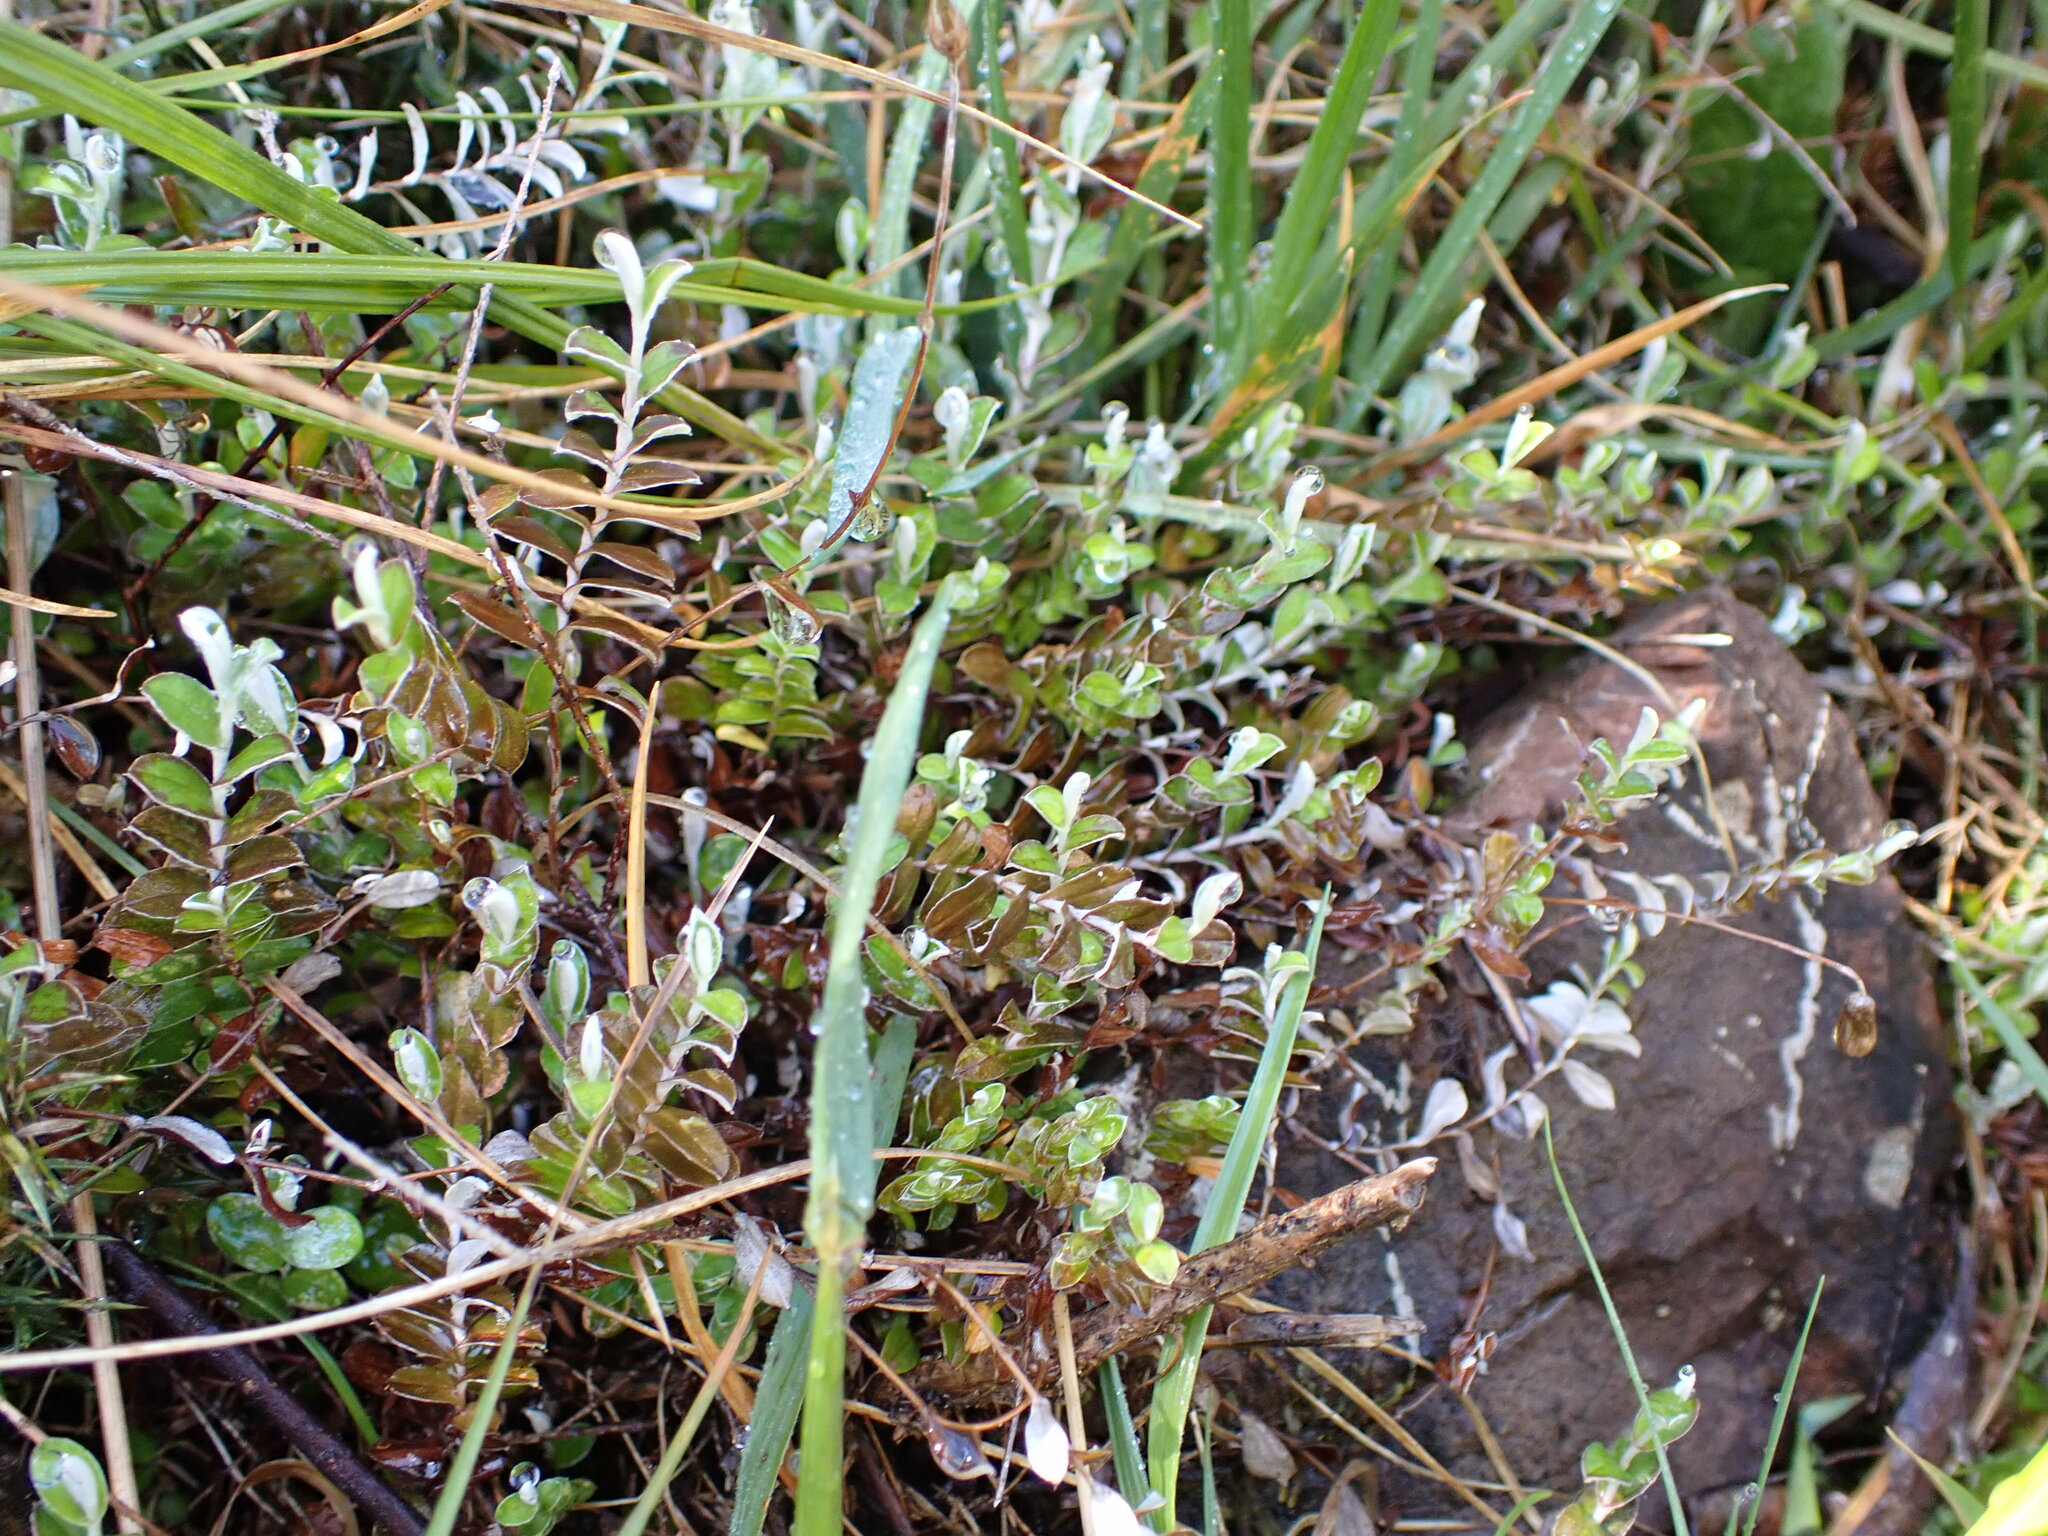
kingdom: Plantae
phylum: Tracheophyta
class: Magnoliopsida
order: Asterales
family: Asteraceae
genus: Helichrysum
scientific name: Helichrysum filicaule
